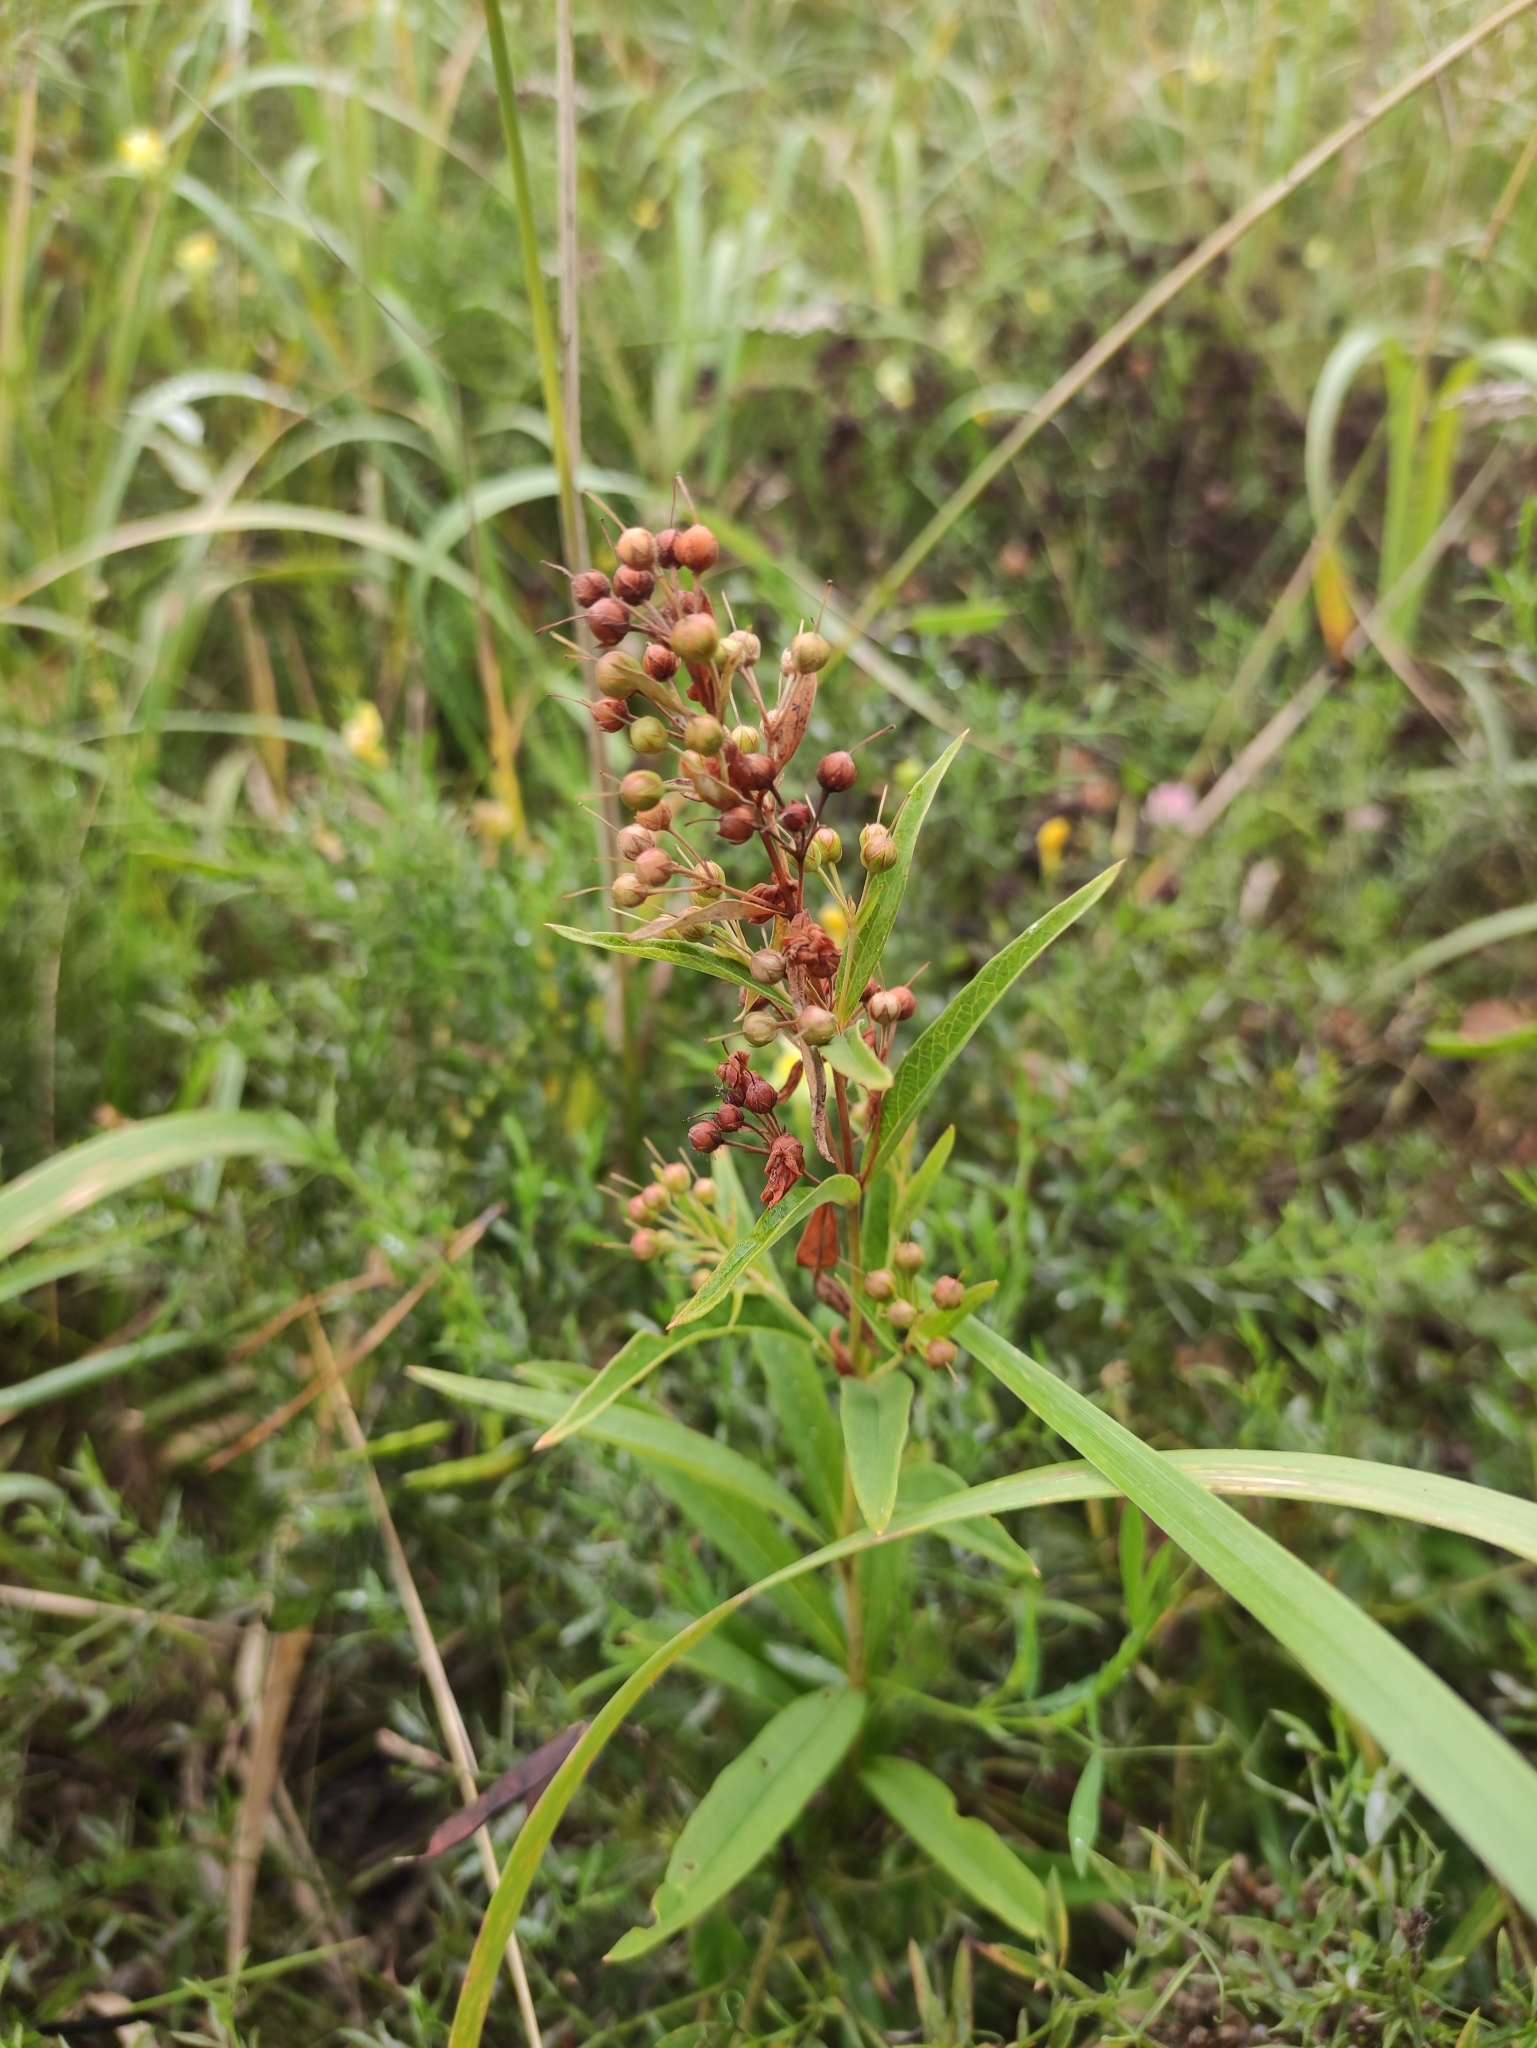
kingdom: Plantae
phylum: Tracheophyta
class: Magnoliopsida
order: Ericales
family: Primulaceae
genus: Lysimachia
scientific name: Lysimachia davurica
